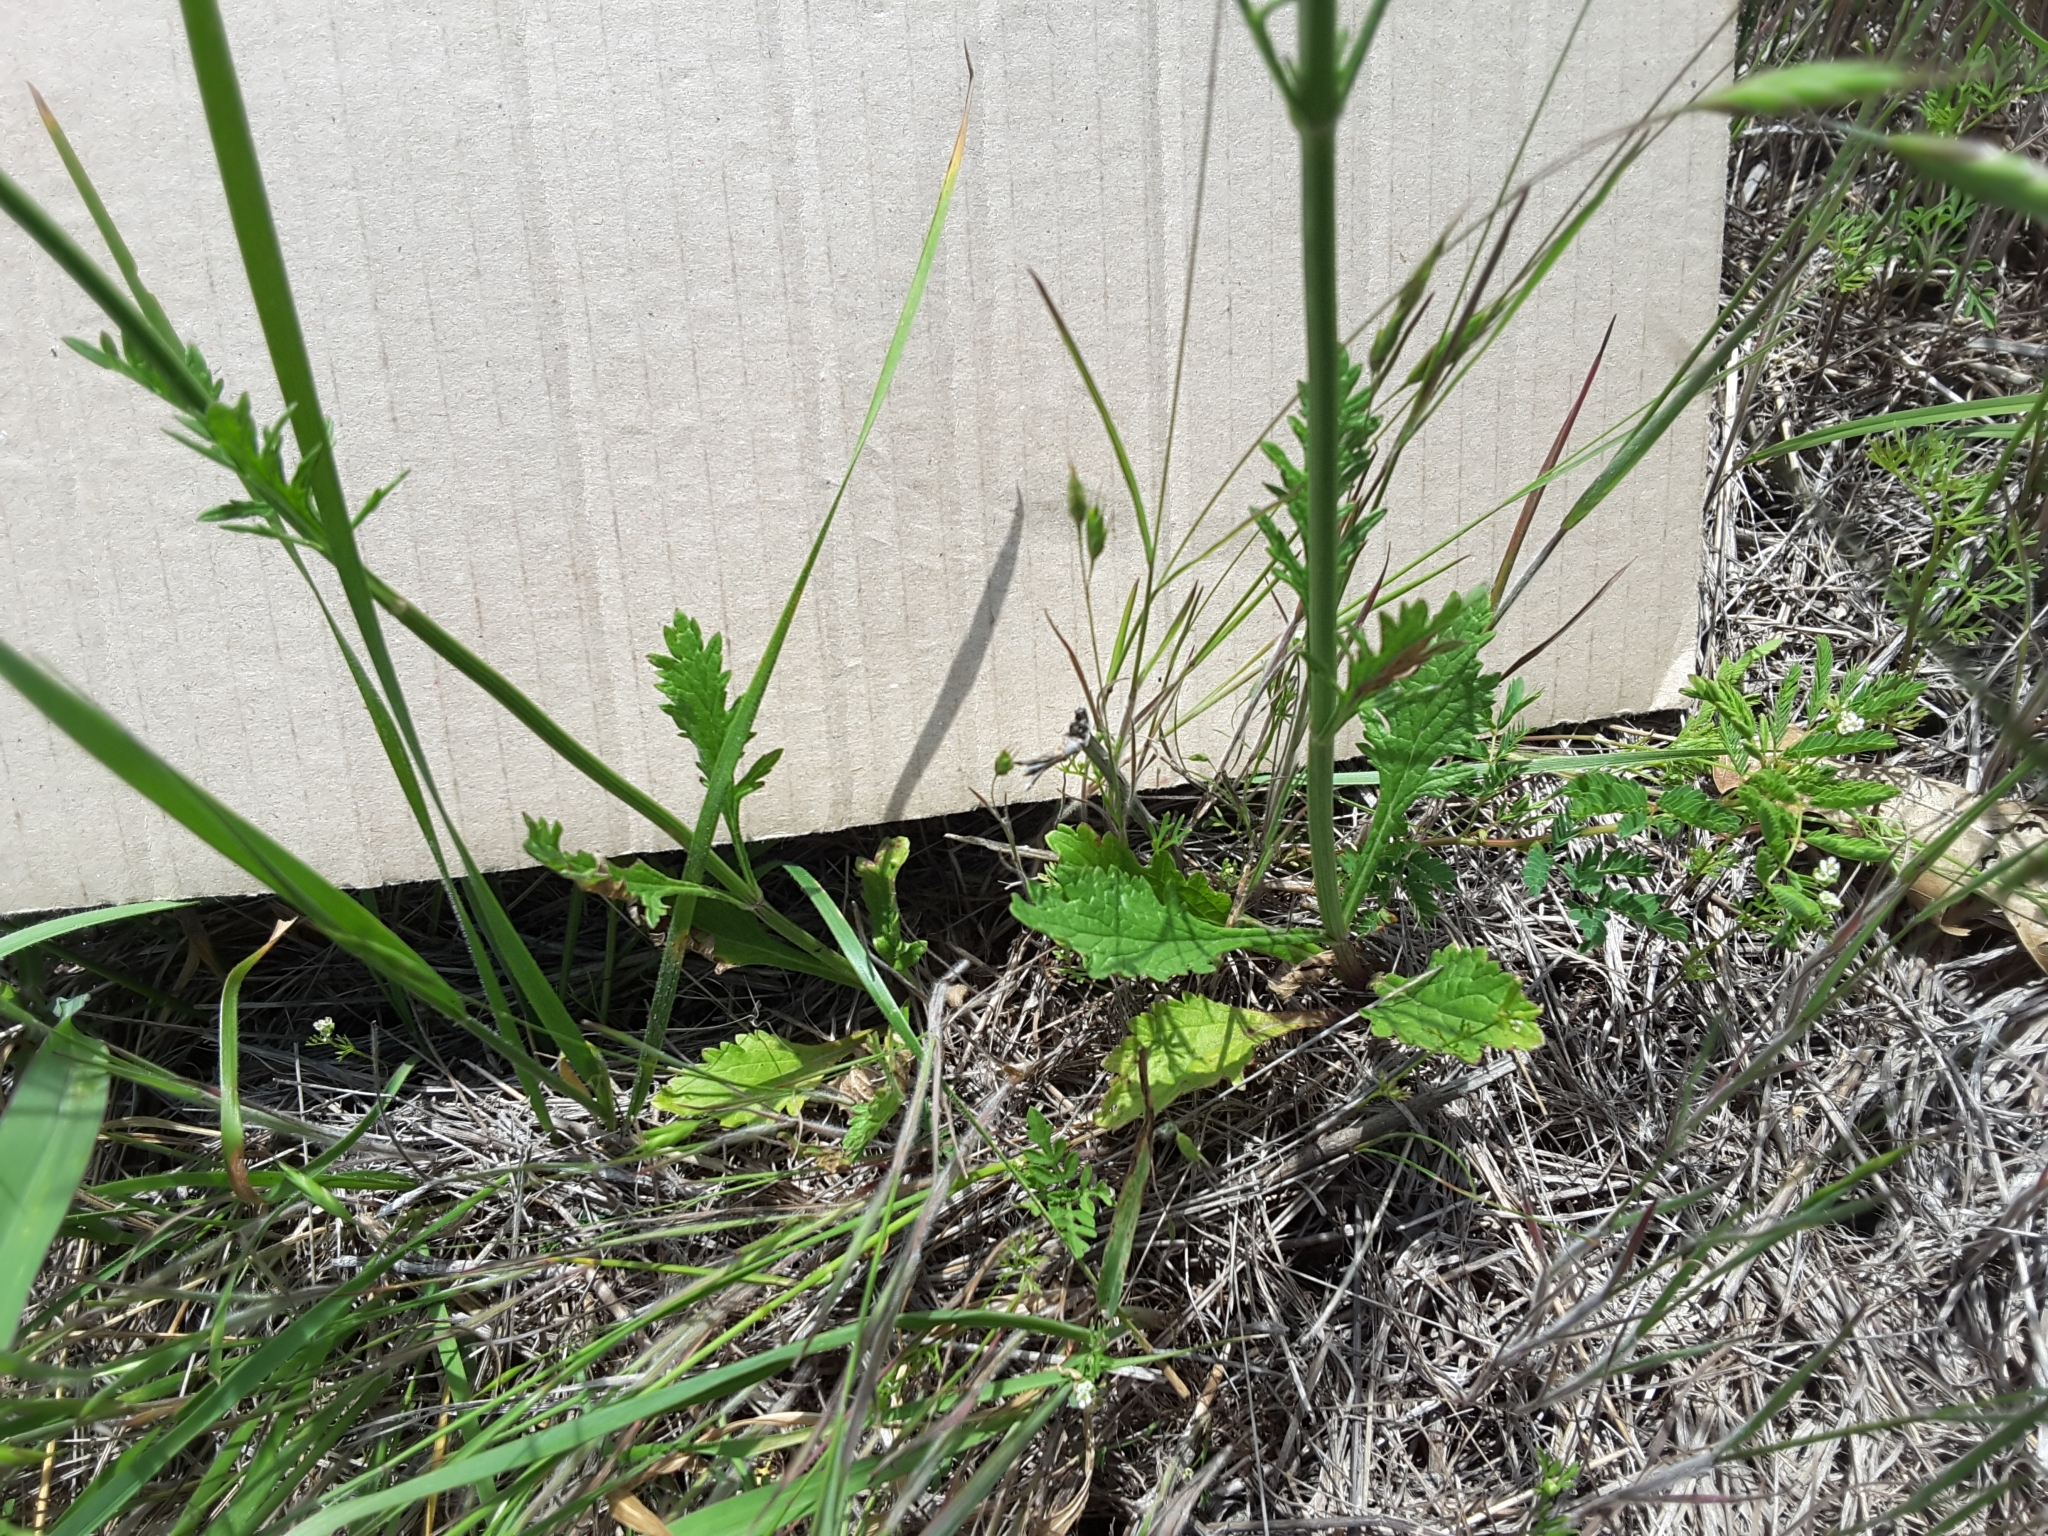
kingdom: Plantae
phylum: Tracheophyta
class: Magnoliopsida
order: Lamiales
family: Verbenaceae
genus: Verbena
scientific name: Verbena halei
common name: Texas vervain
